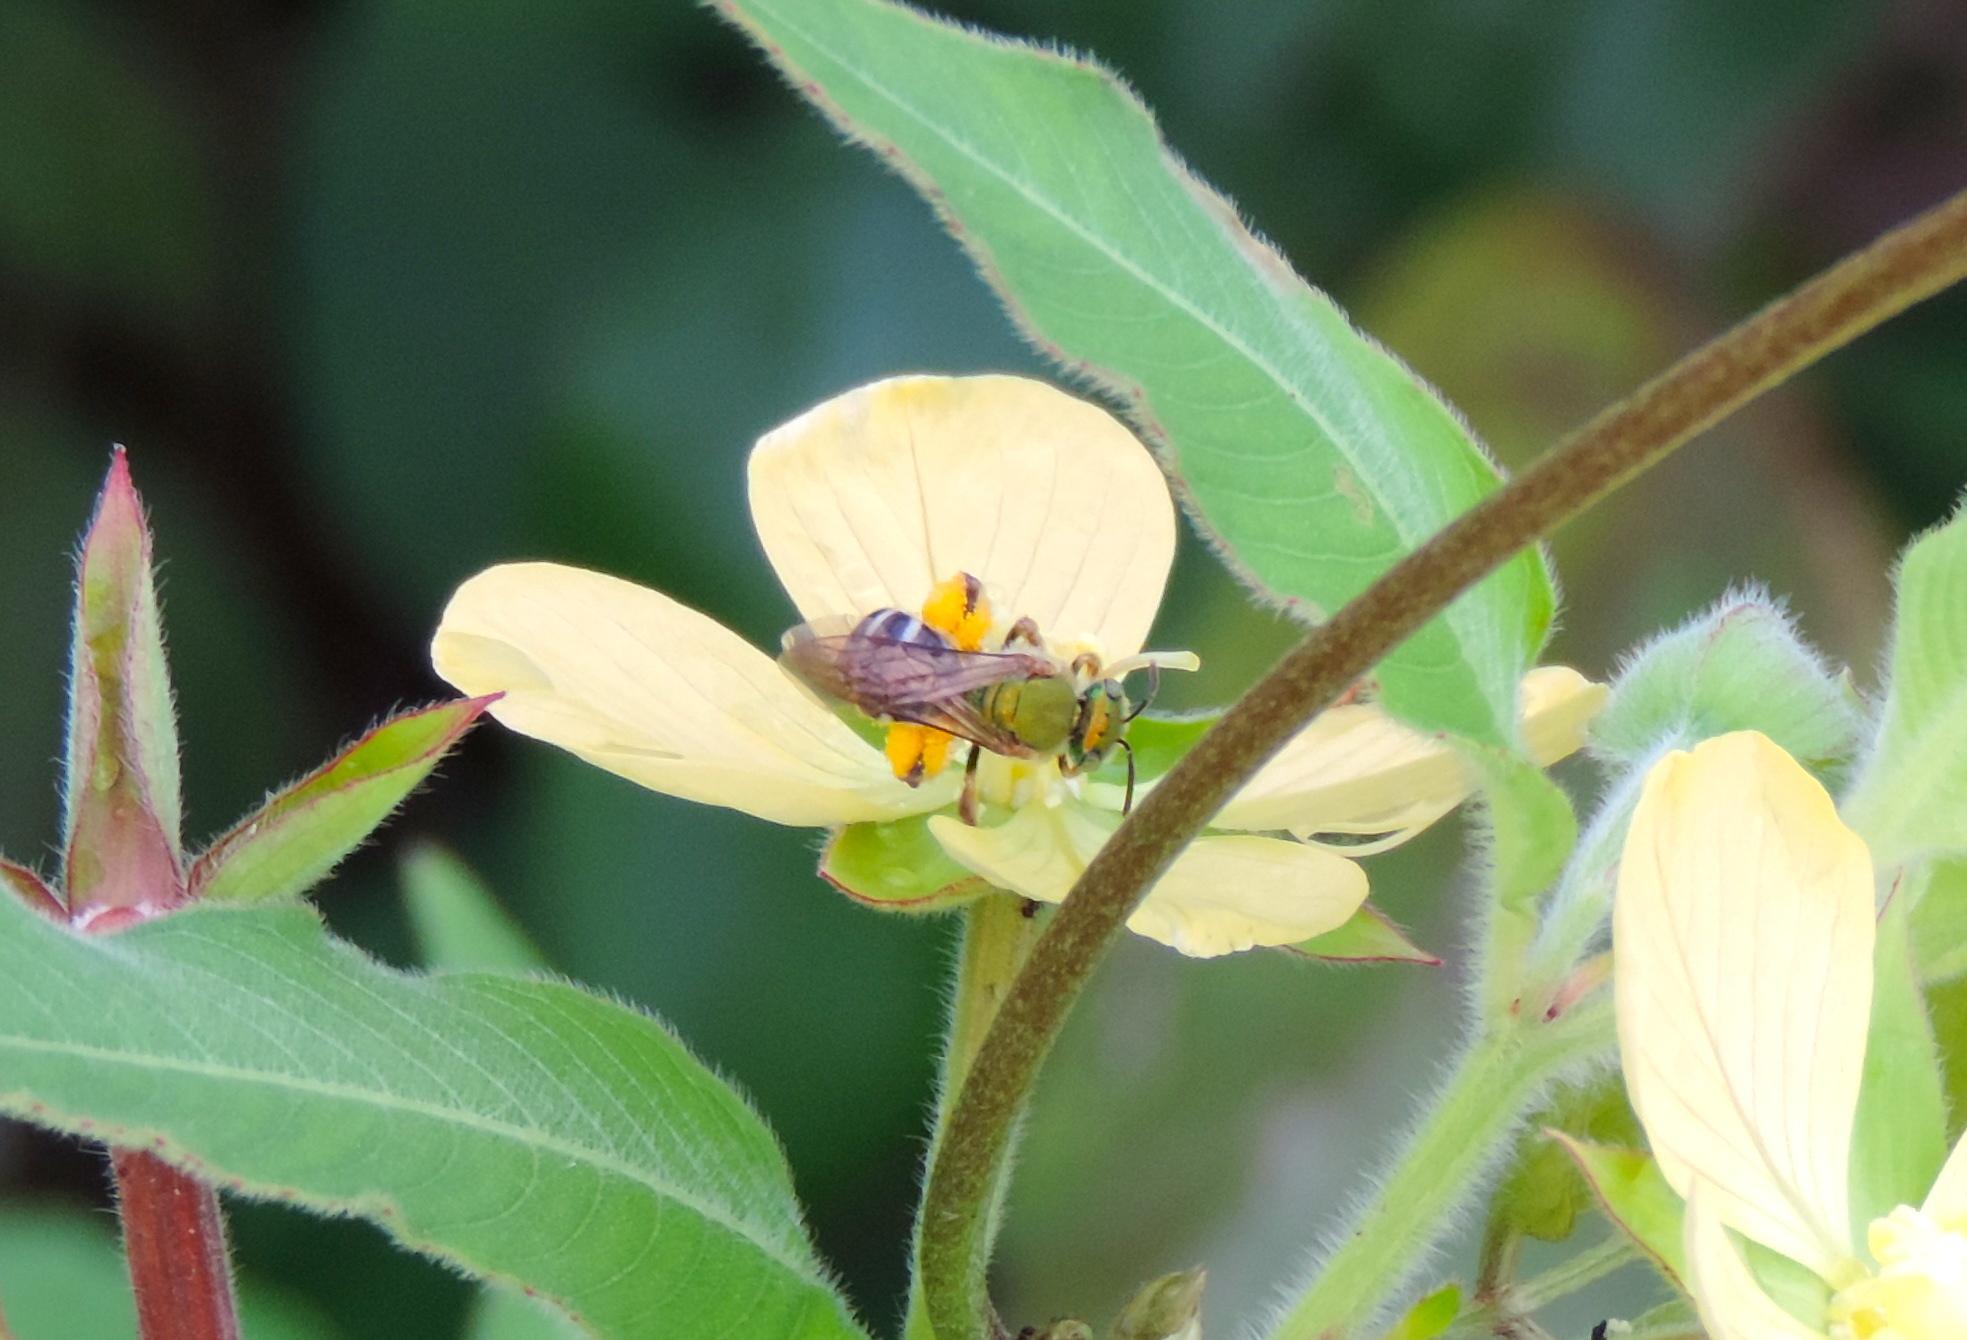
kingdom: Animalia
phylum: Arthropoda
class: Insecta
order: Hymenoptera
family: Halictidae
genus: Agapostemon
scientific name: Agapostemon
